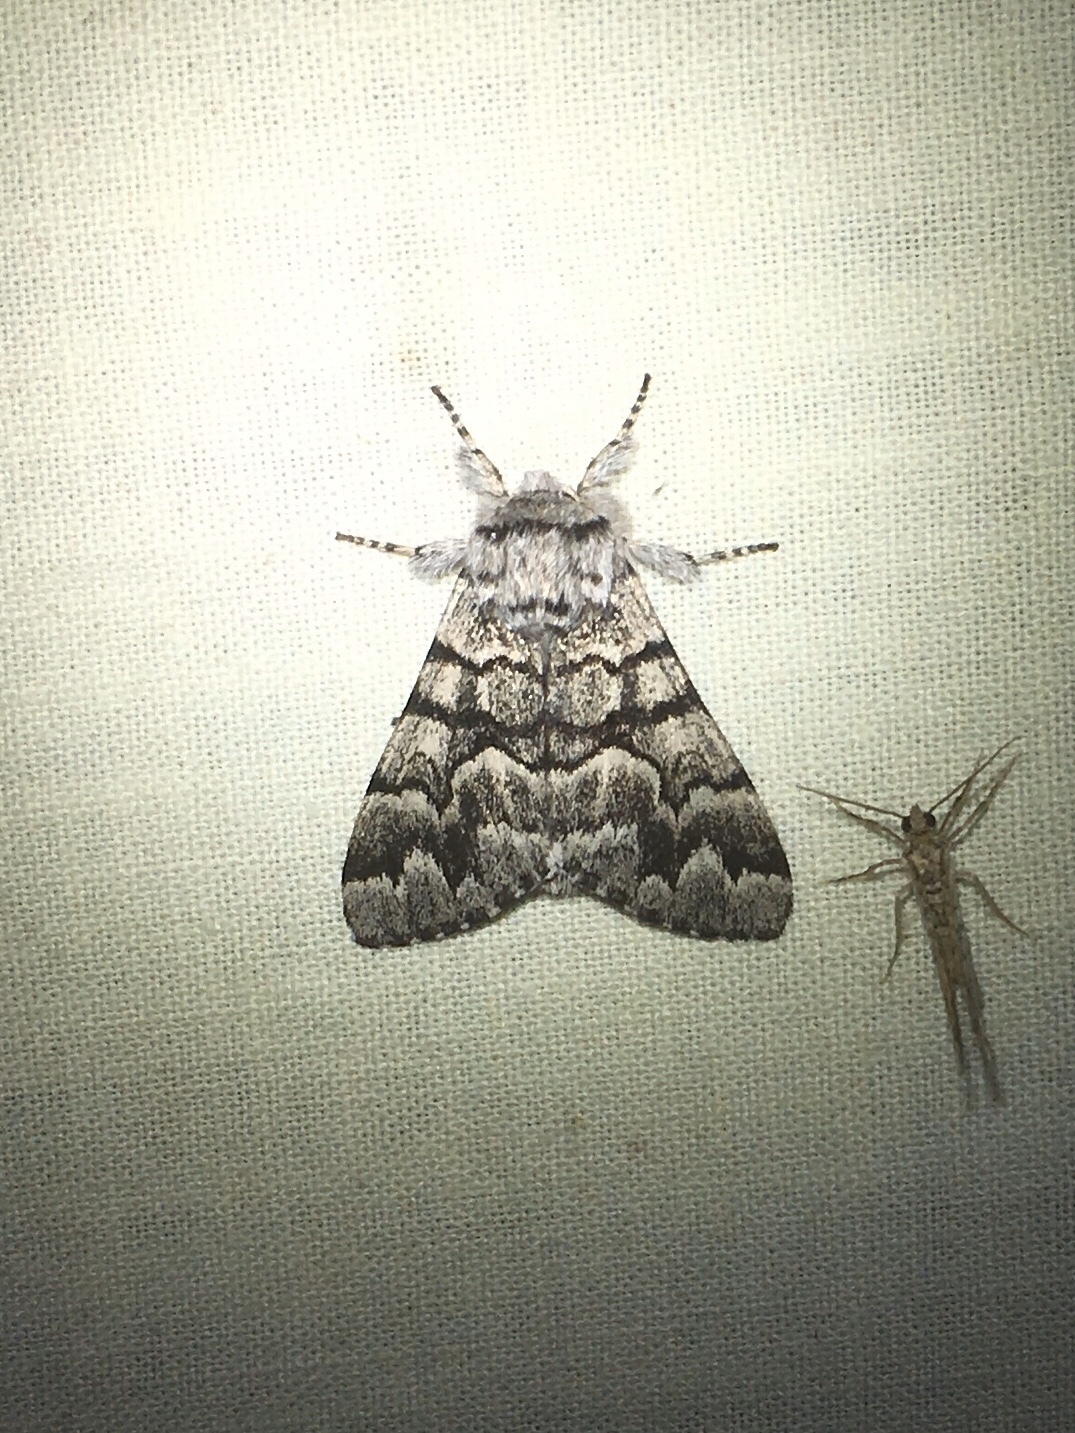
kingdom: Animalia
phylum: Arthropoda
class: Insecta
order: Lepidoptera
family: Noctuidae
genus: Panthea
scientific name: Panthea furcilla
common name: Eastern panthea moth
